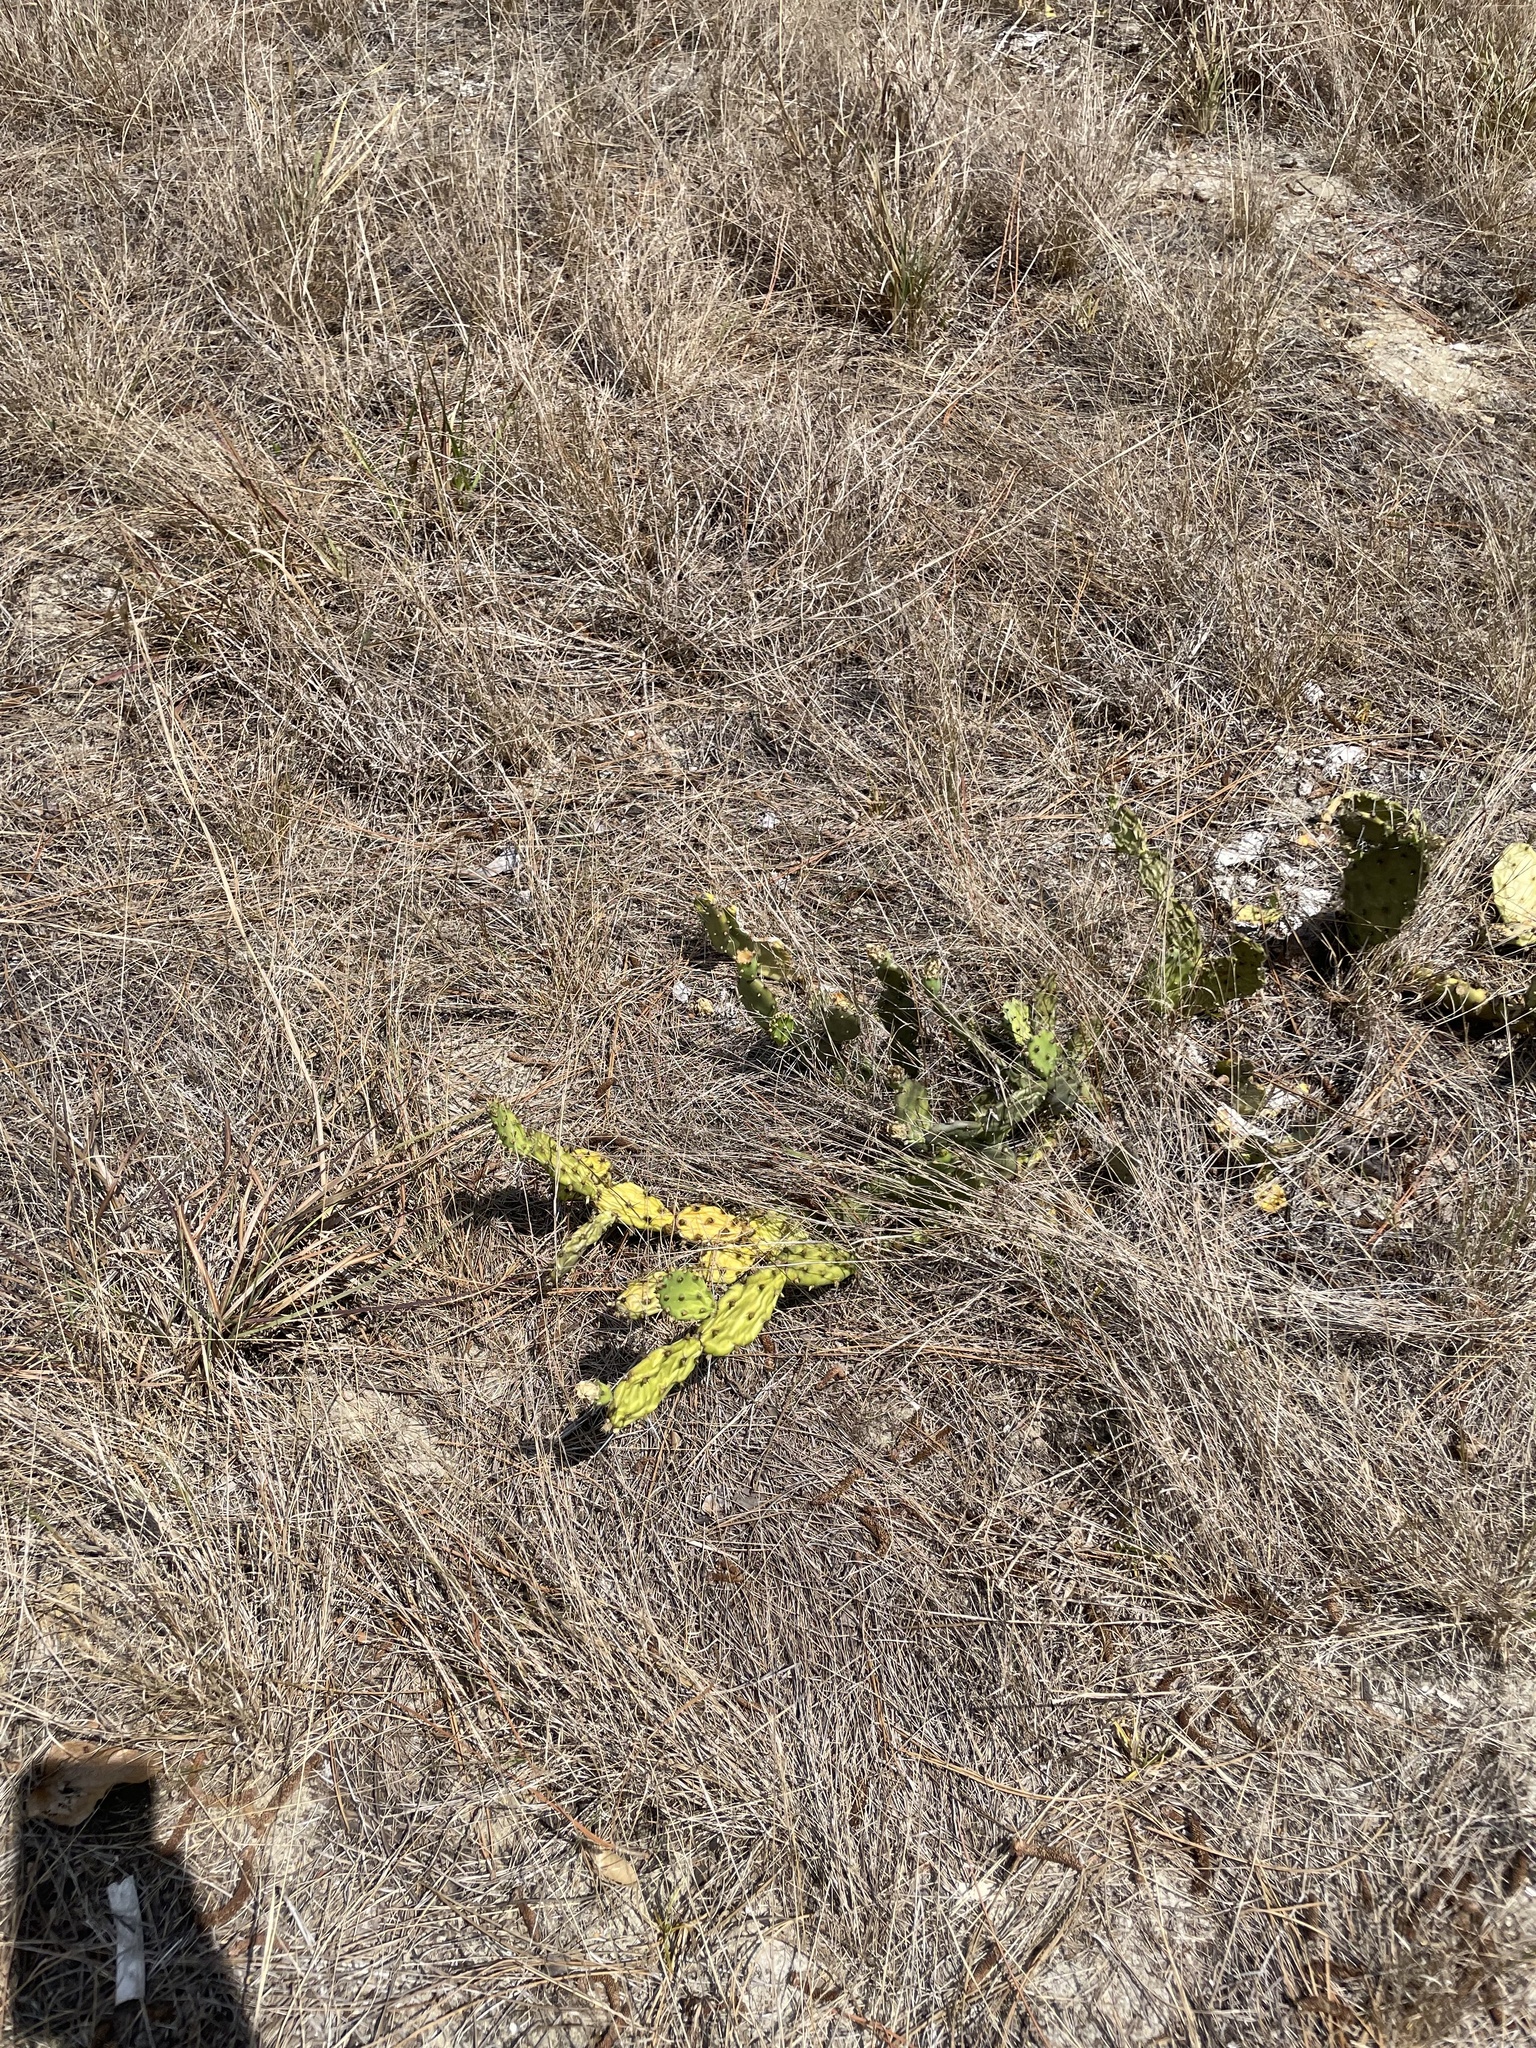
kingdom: Plantae
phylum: Tracheophyta
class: Magnoliopsida
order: Caryophyllales
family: Cactaceae
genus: Opuntia
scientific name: Opuntia austrina
